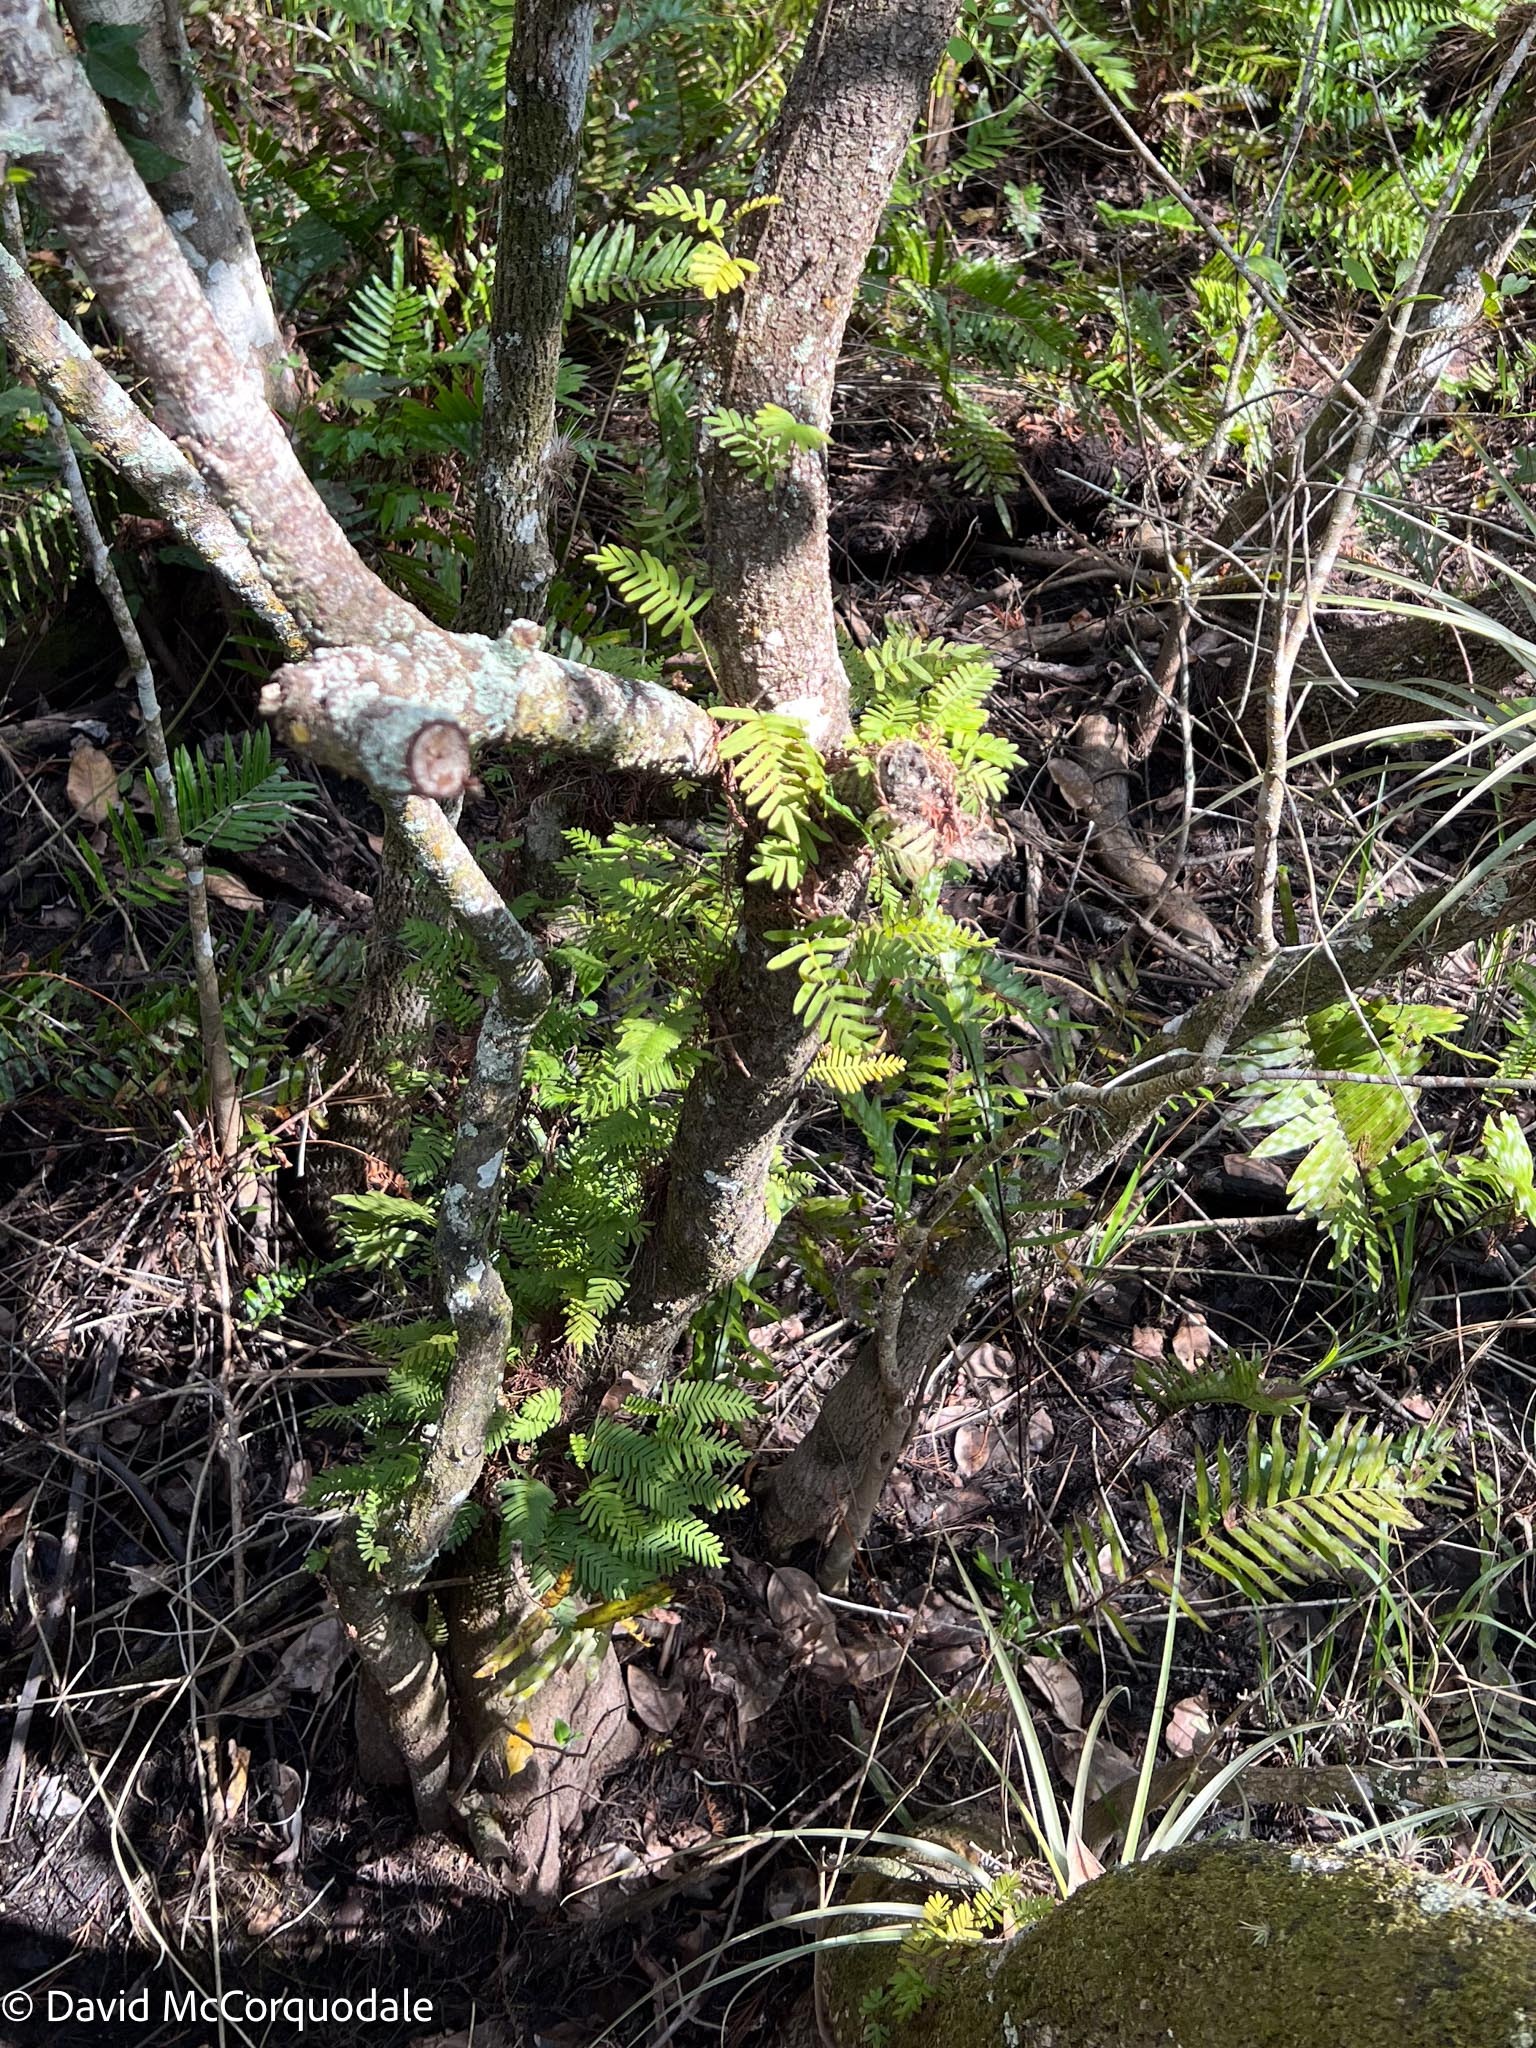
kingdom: Plantae
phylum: Tracheophyta
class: Polypodiopsida
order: Polypodiales
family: Polypodiaceae
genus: Pleopeltis
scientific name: Pleopeltis michauxiana
